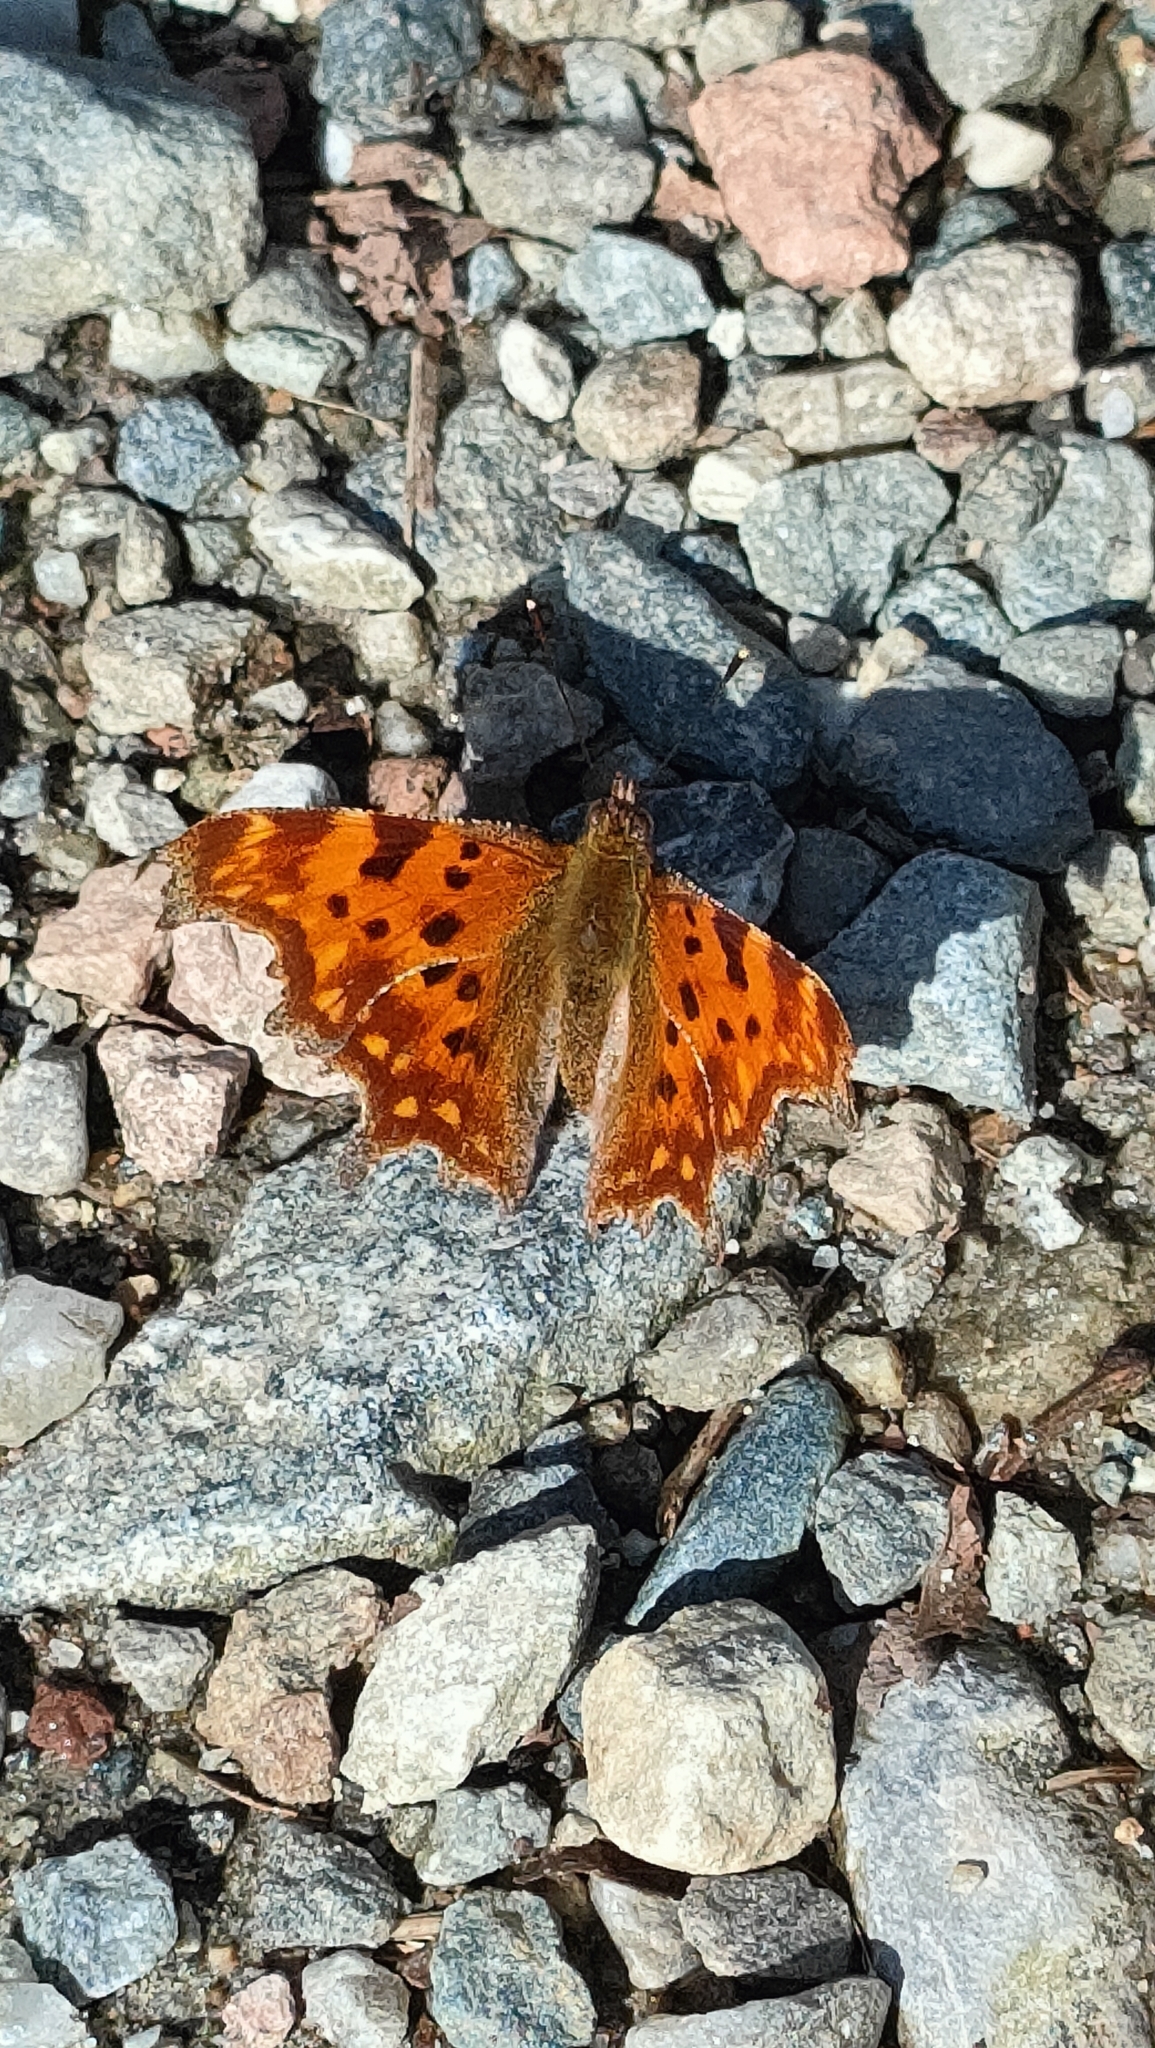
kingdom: Animalia
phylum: Arthropoda
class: Insecta
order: Lepidoptera
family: Nymphalidae
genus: Polygonia
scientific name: Polygonia c-album
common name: Comma
